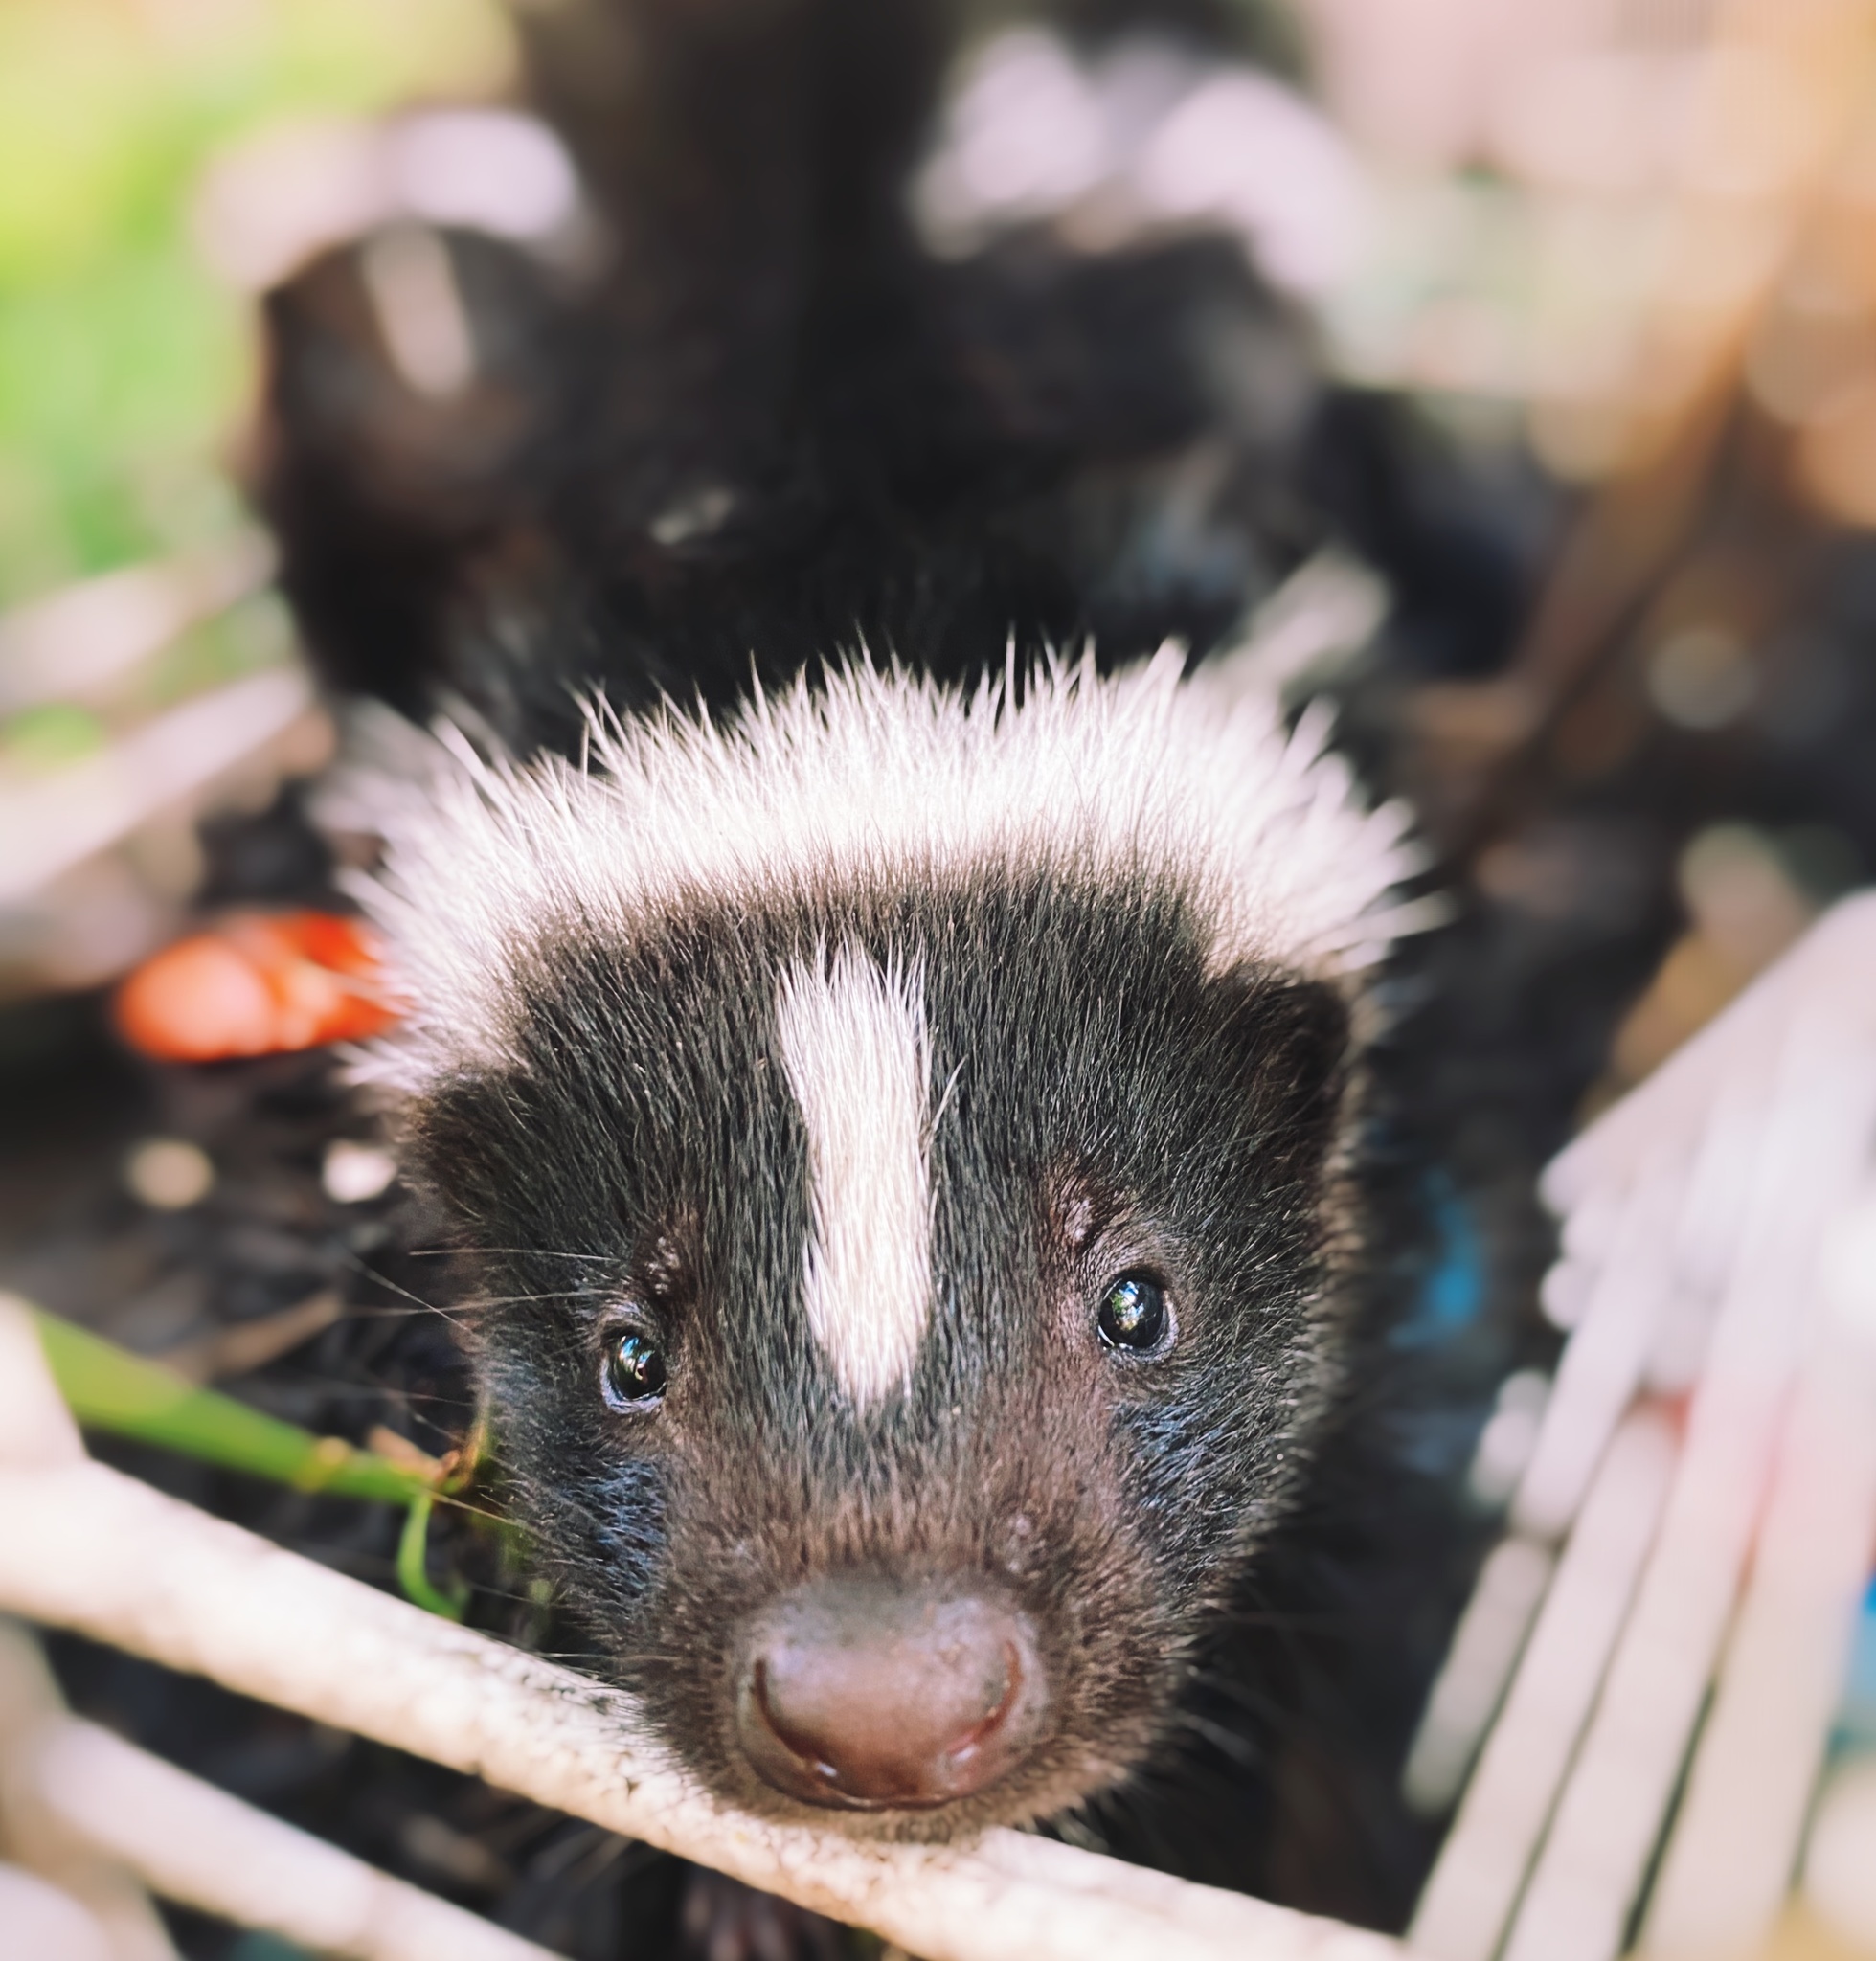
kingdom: Animalia
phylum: Chordata
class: Mammalia
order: Carnivora
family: Mephitidae
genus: Mephitis
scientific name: Mephitis mephitis
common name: Striped skunk
